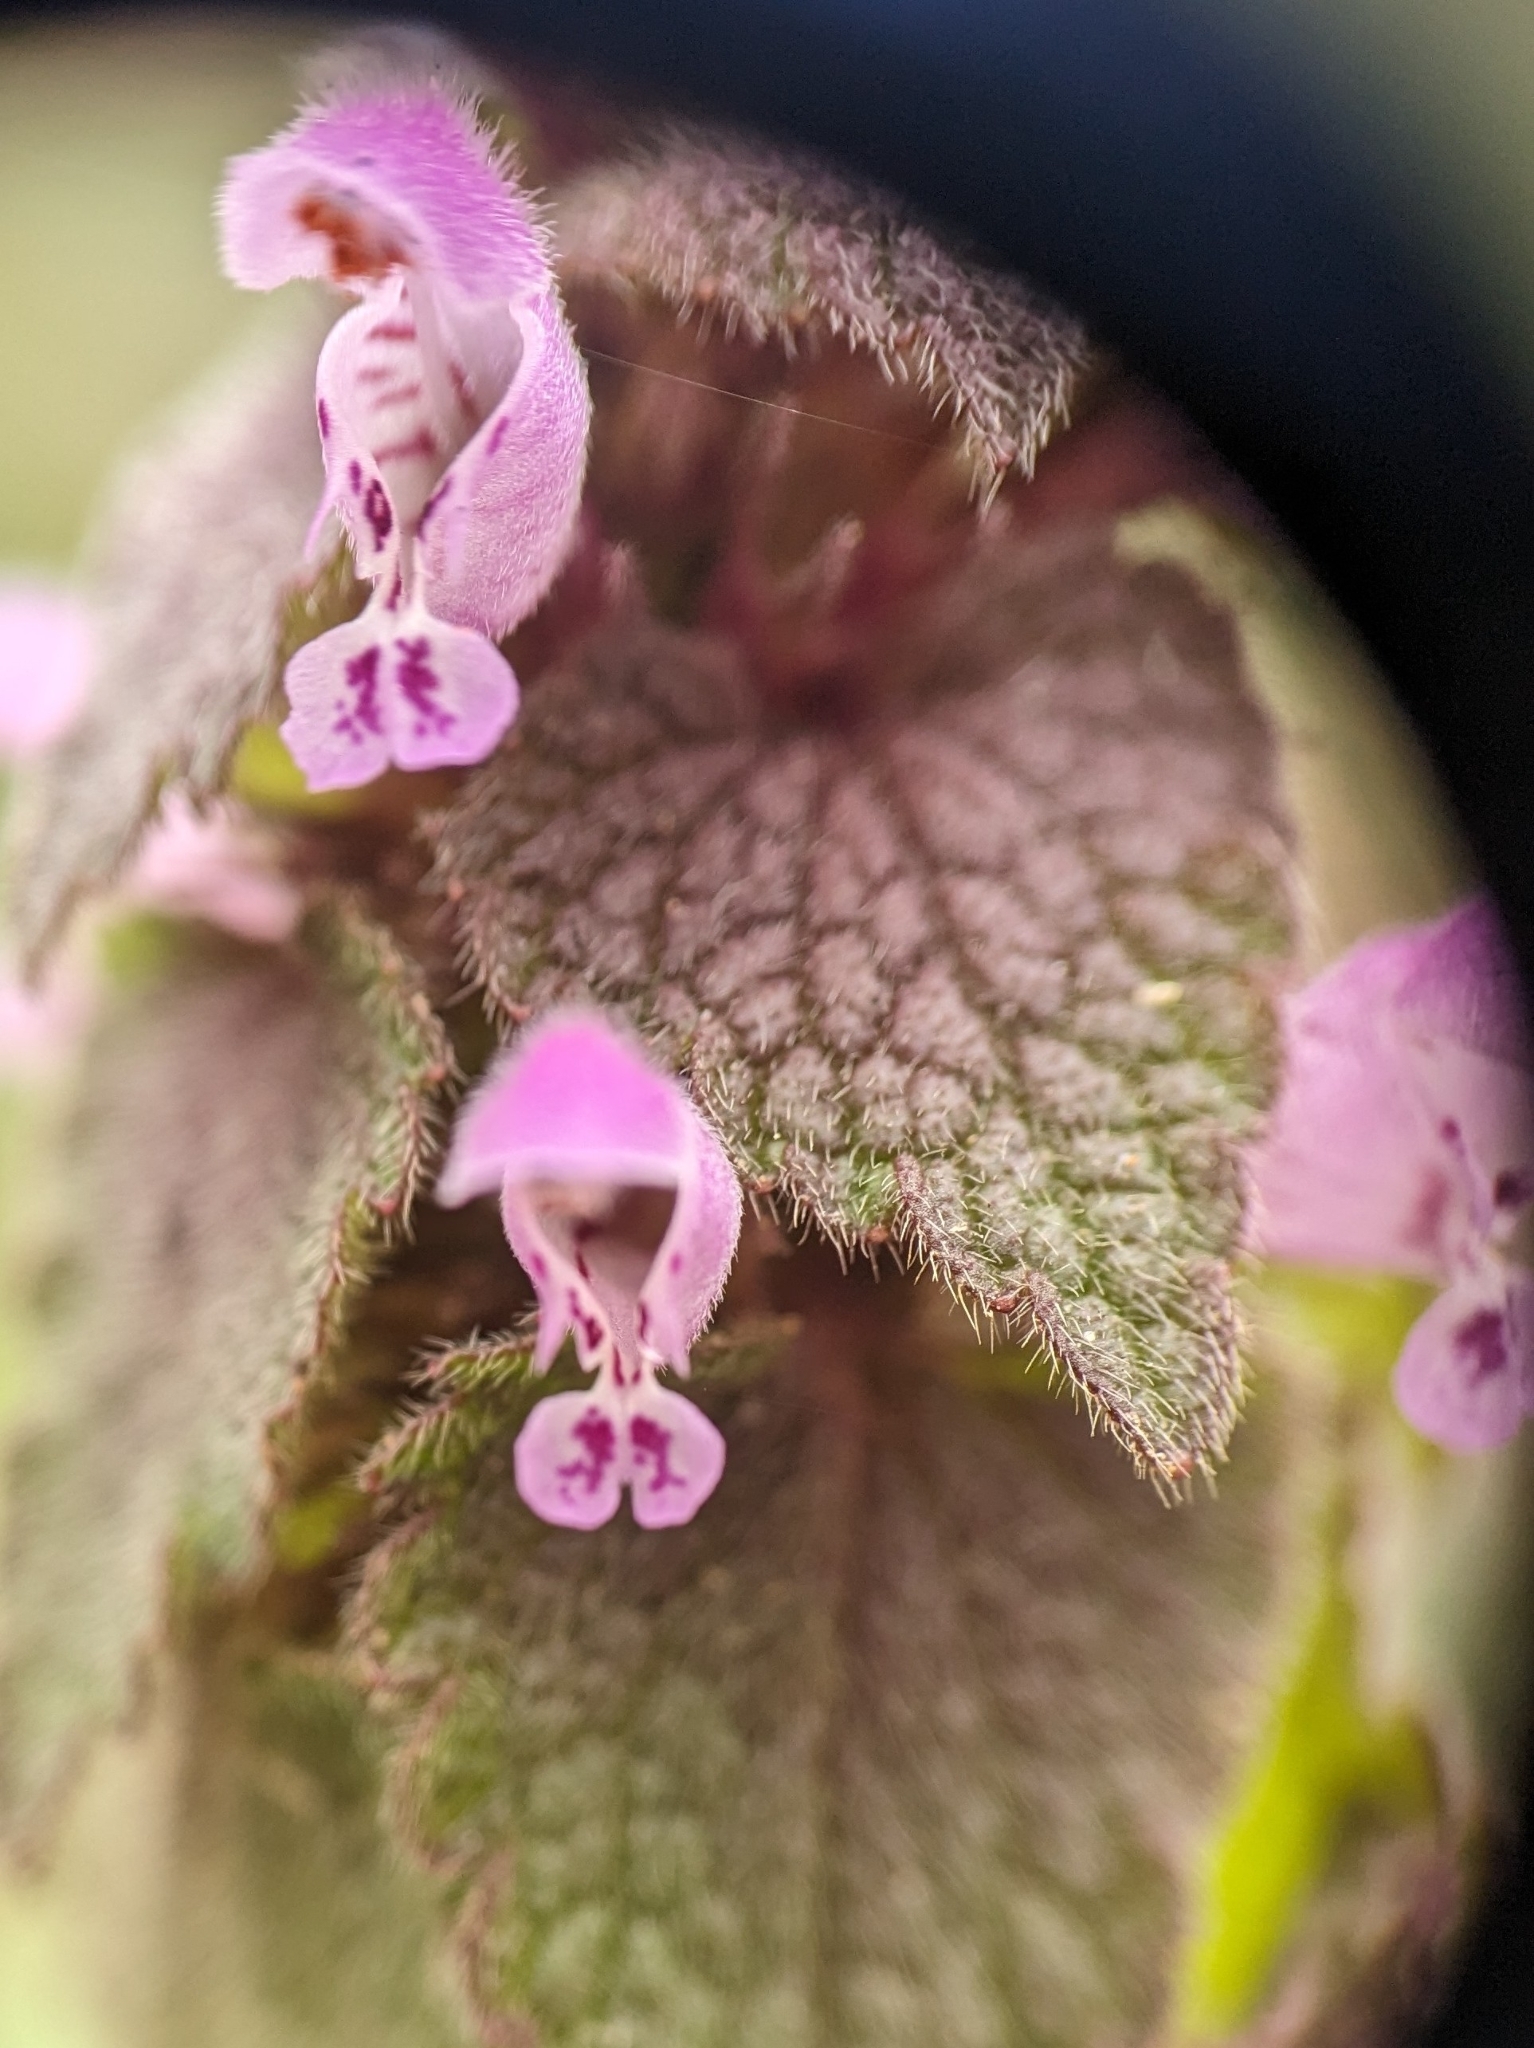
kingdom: Plantae
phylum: Tracheophyta
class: Magnoliopsida
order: Lamiales
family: Lamiaceae
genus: Lamium
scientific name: Lamium purpureum
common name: Red dead-nettle
